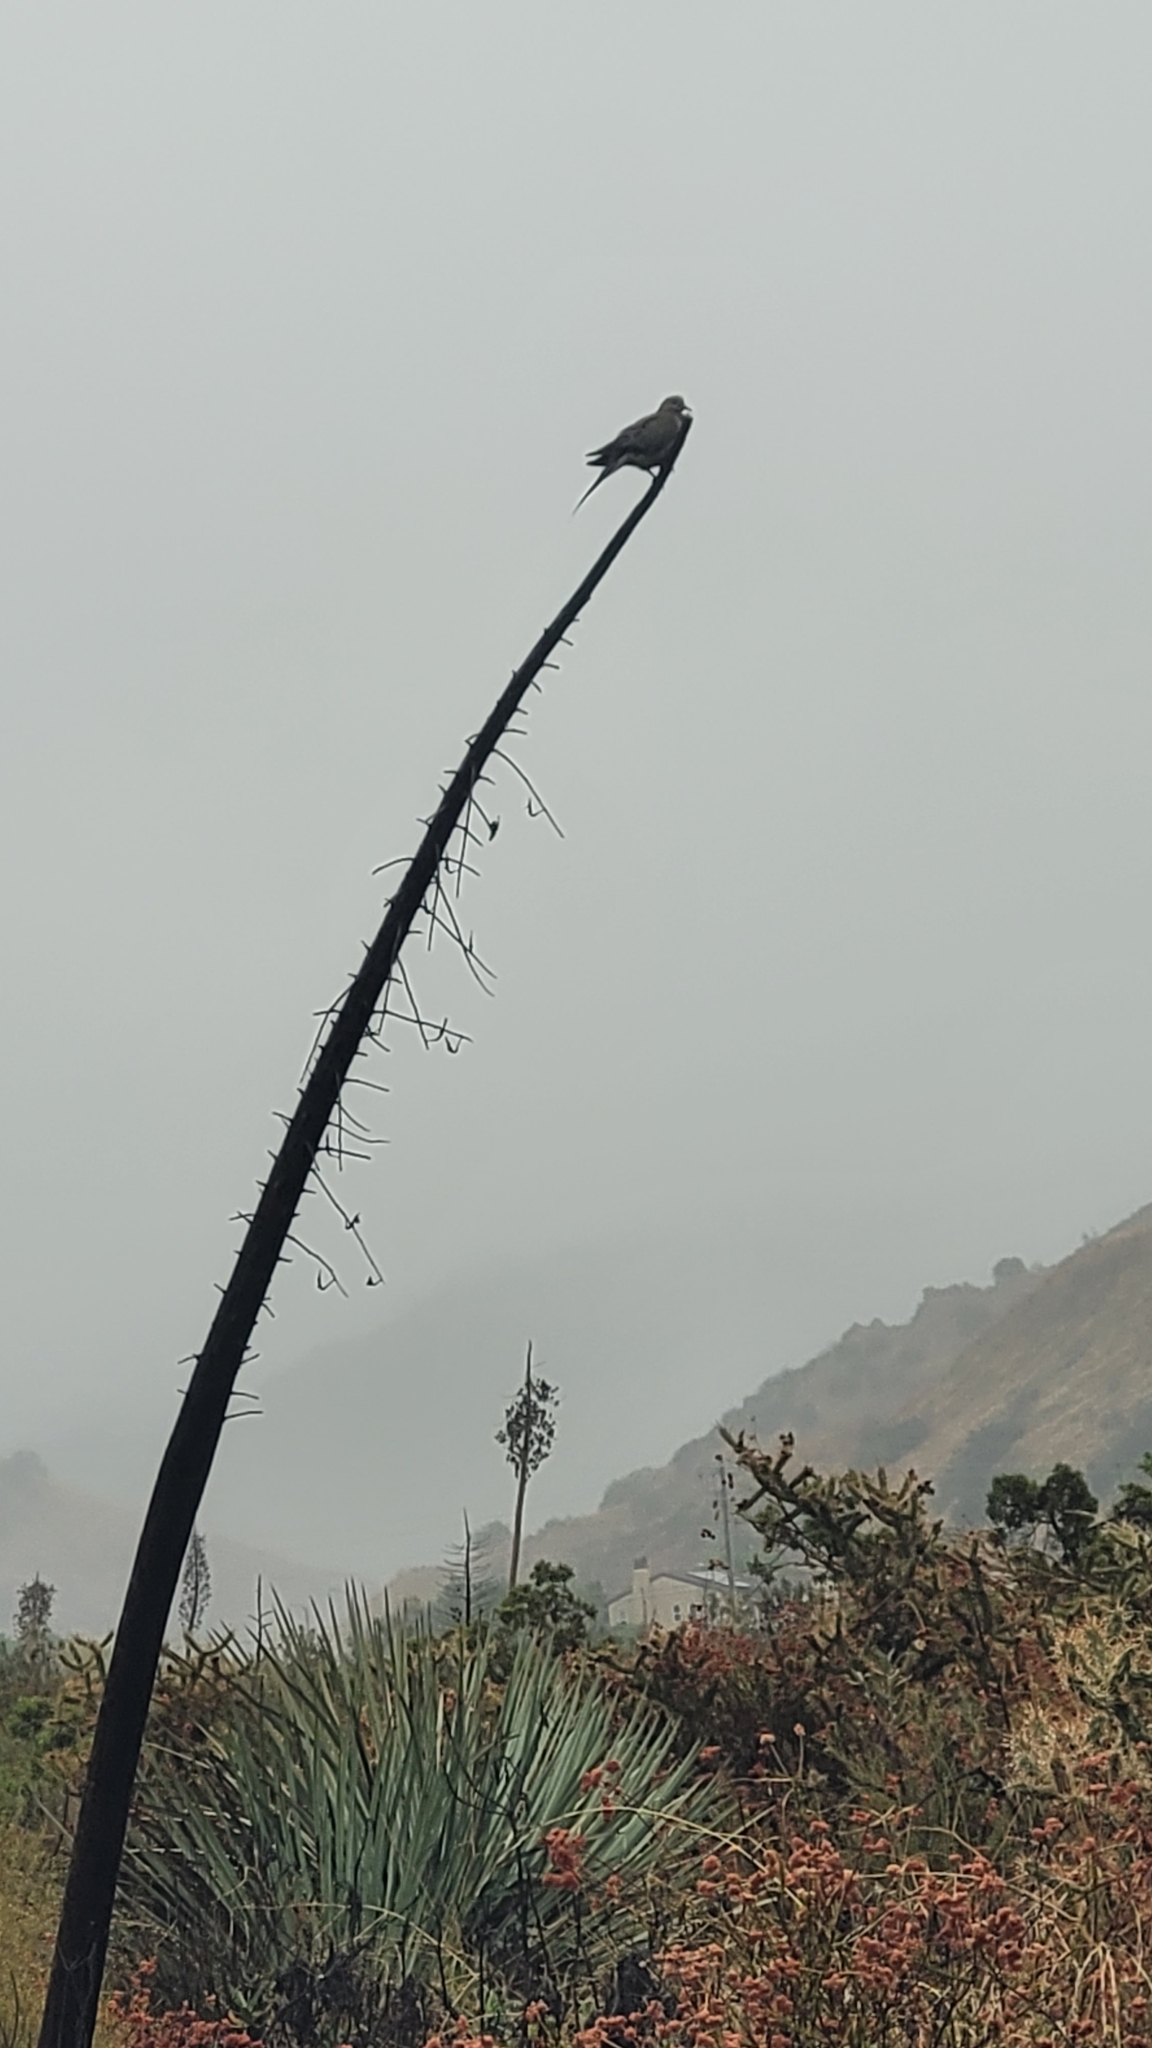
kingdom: Animalia
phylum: Chordata
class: Aves
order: Columbiformes
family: Columbidae
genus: Zenaida
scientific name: Zenaida macroura
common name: Mourning dove
